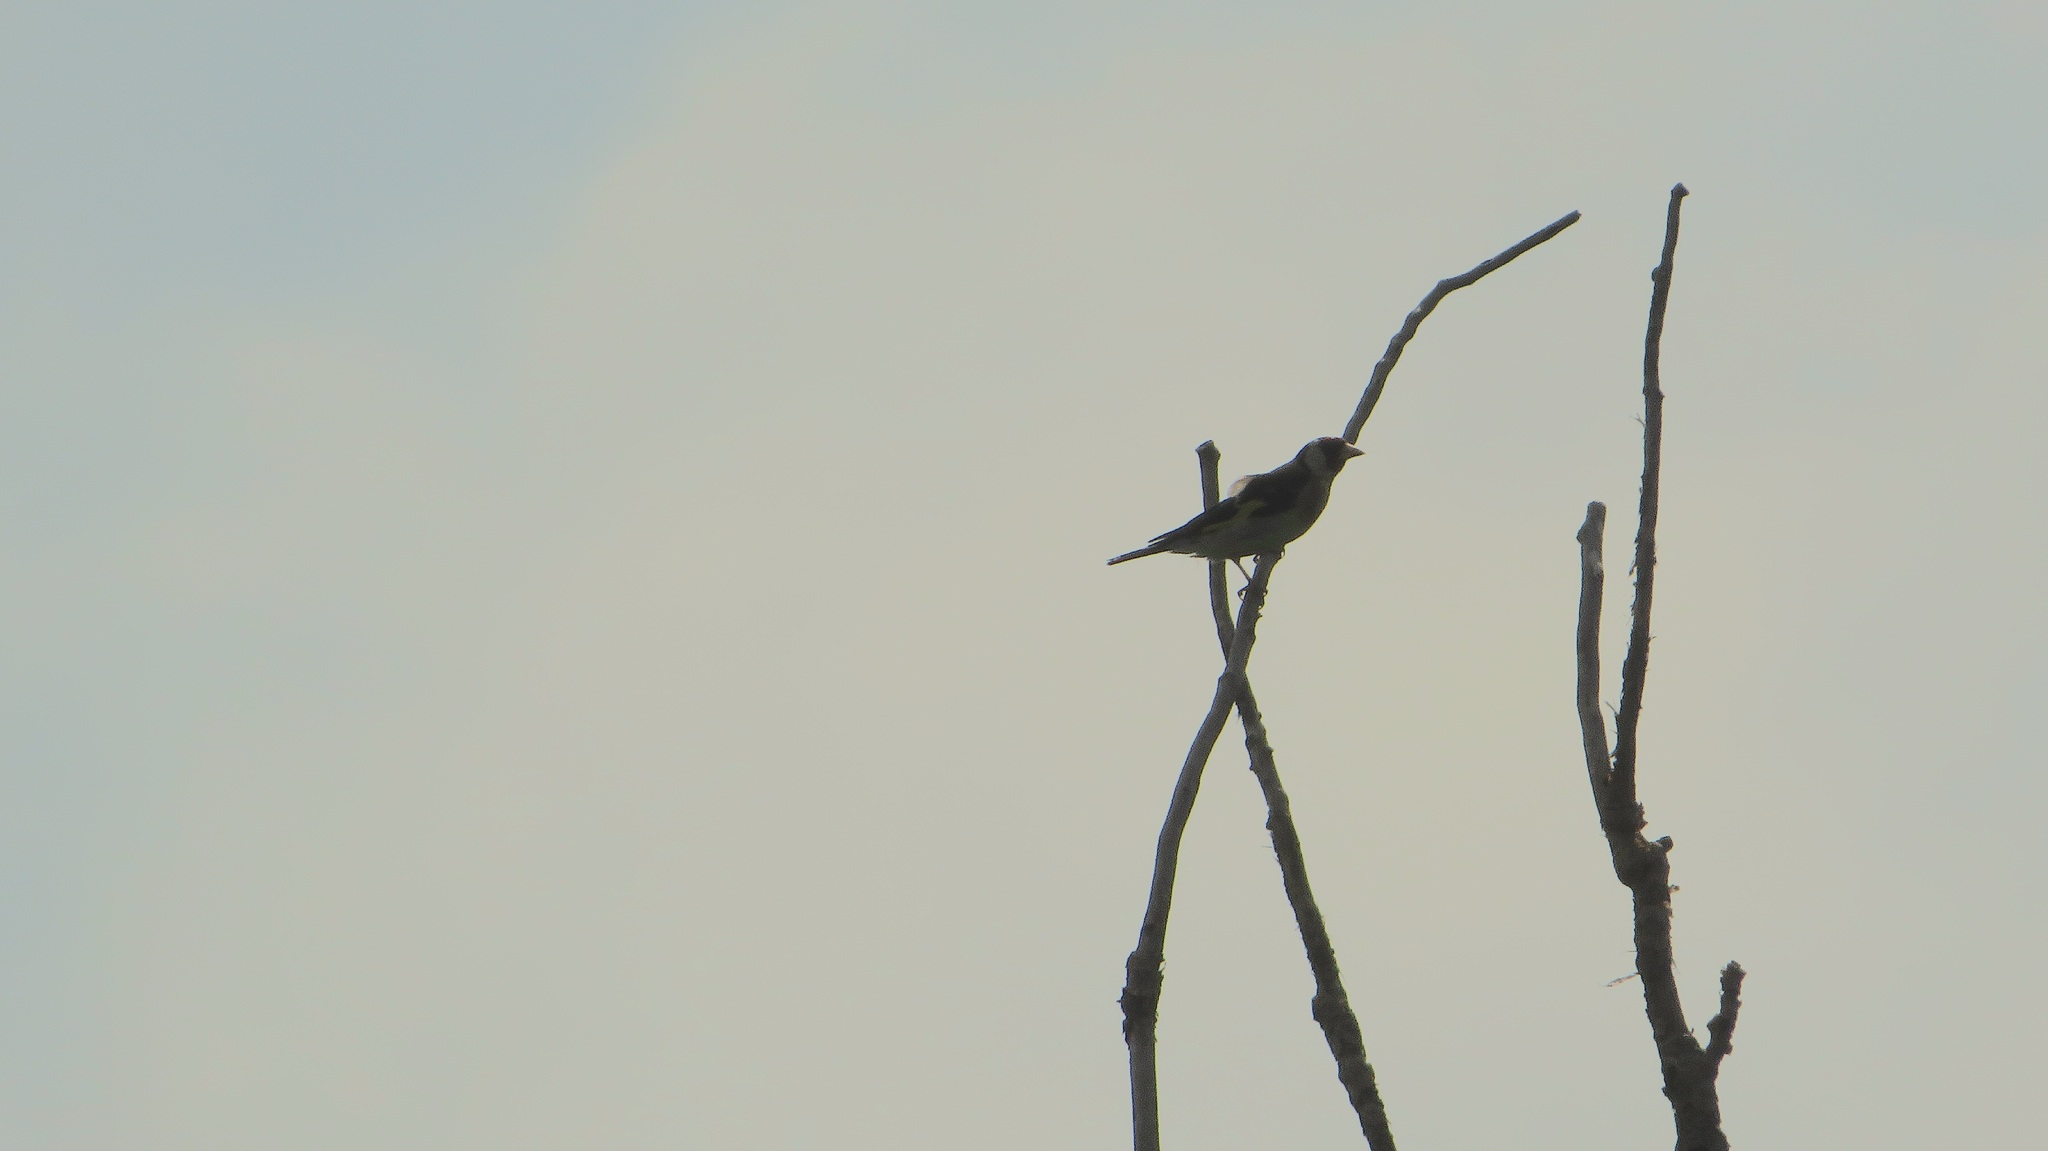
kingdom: Animalia
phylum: Chordata
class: Aves
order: Passeriformes
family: Fringillidae
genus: Carduelis
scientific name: Carduelis carduelis
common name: European goldfinch
